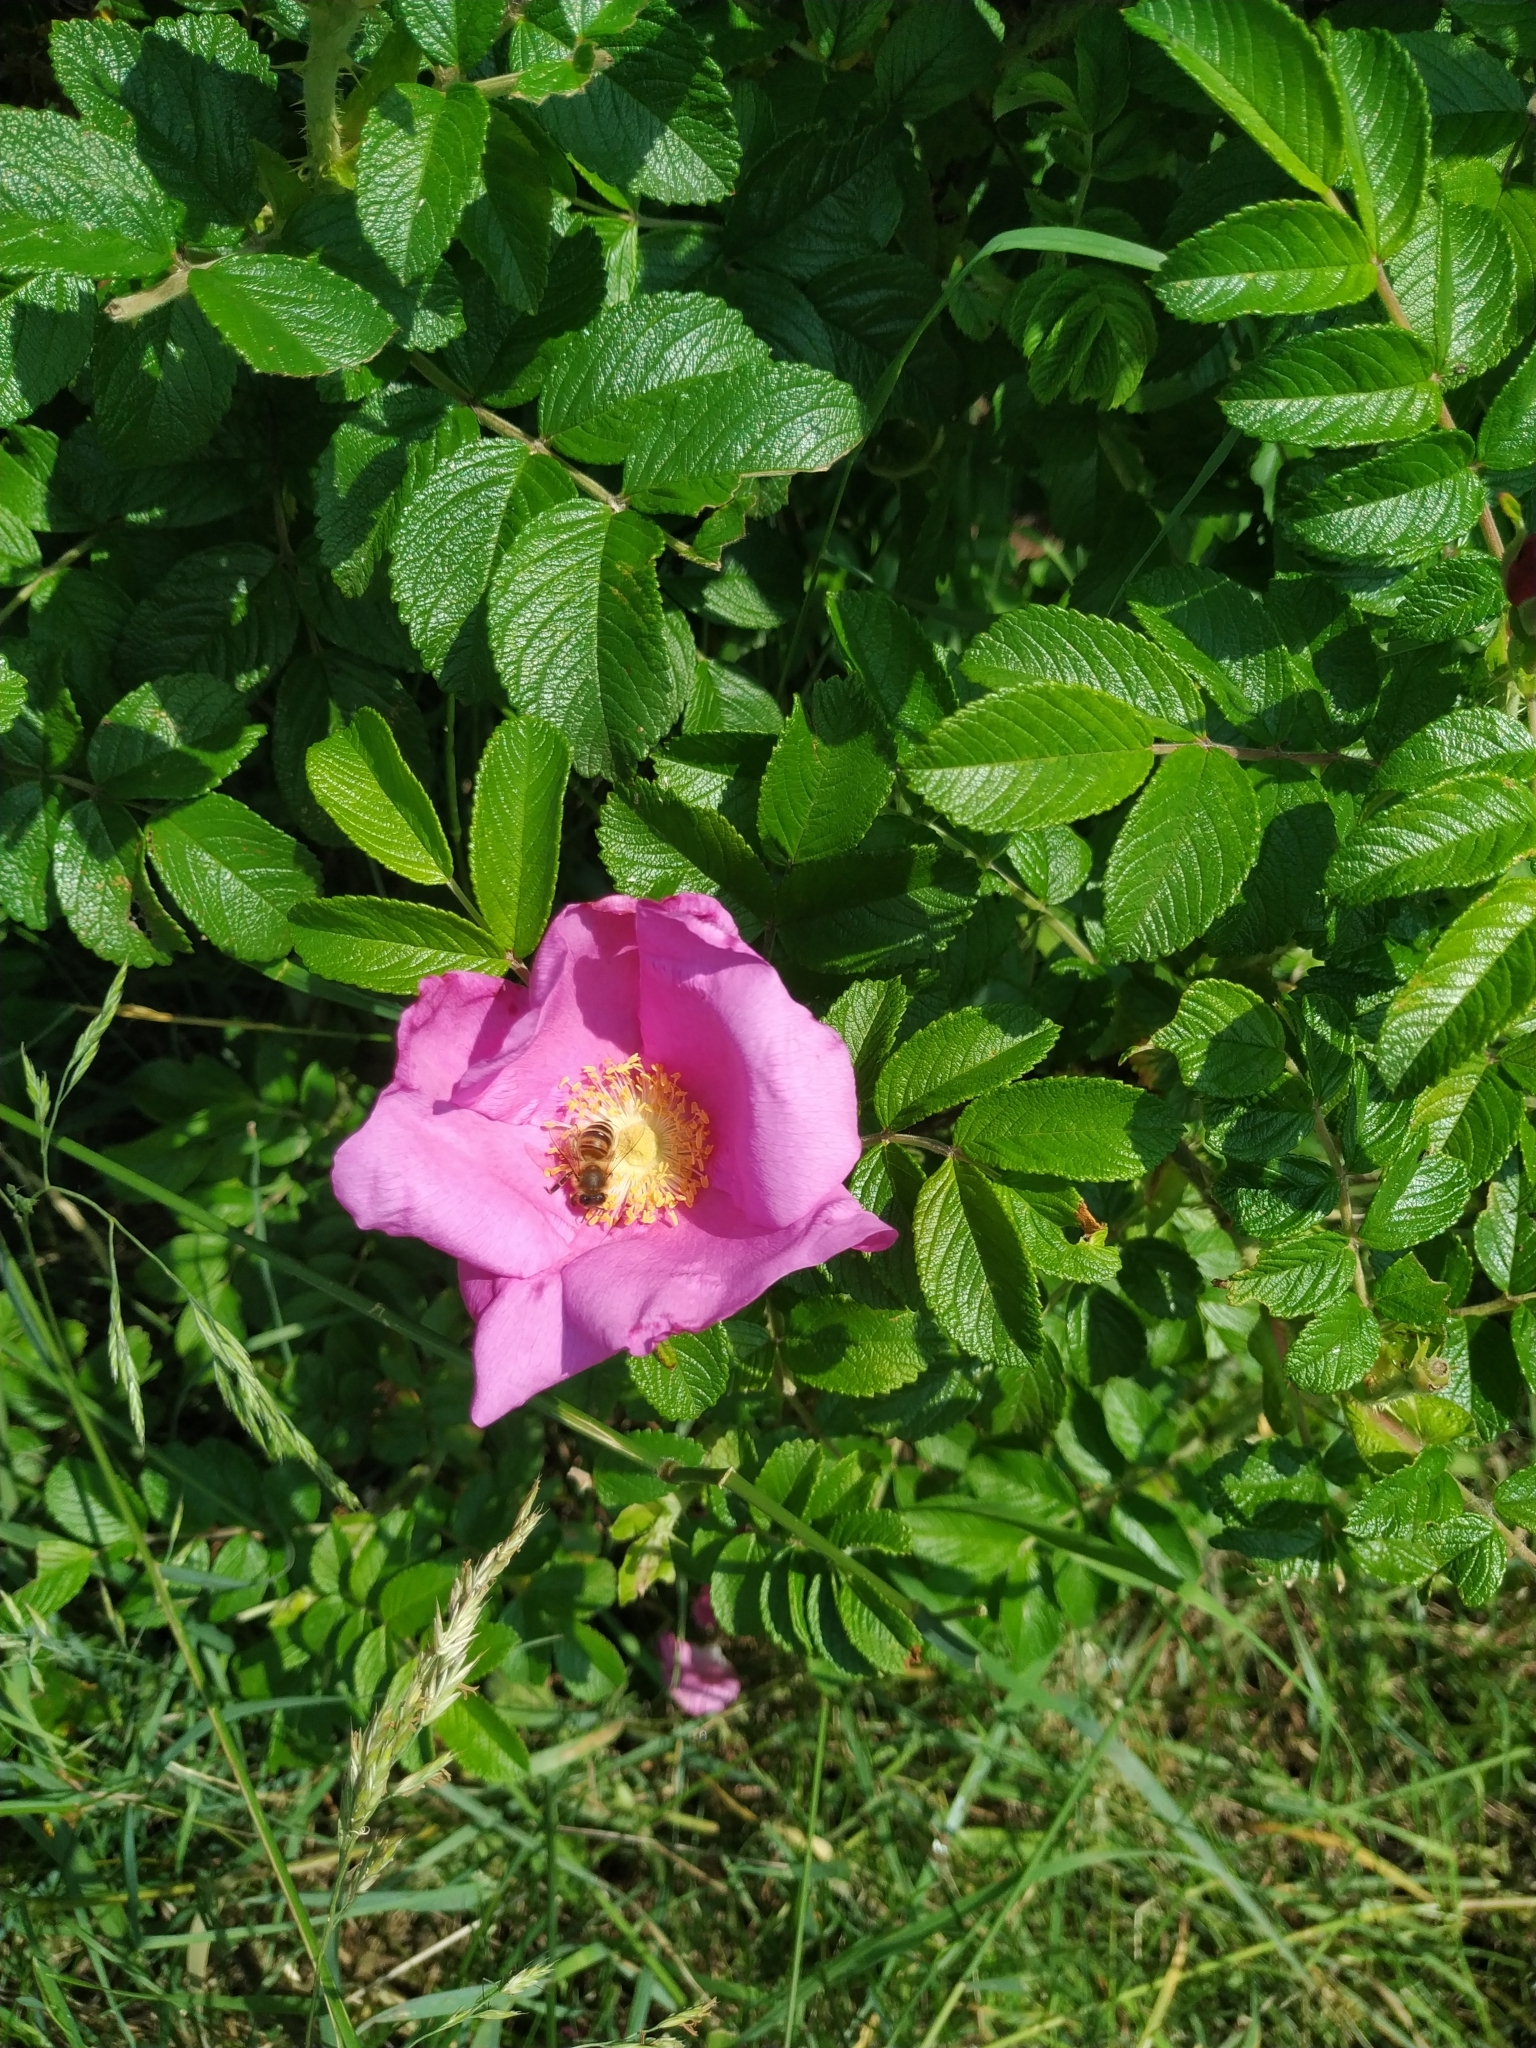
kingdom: Plantae
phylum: Tracheophyta
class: Magnoliopsida
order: Rosales
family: Rosaceae
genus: Rosa
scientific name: Rosa rugosa
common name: Japanese rose
